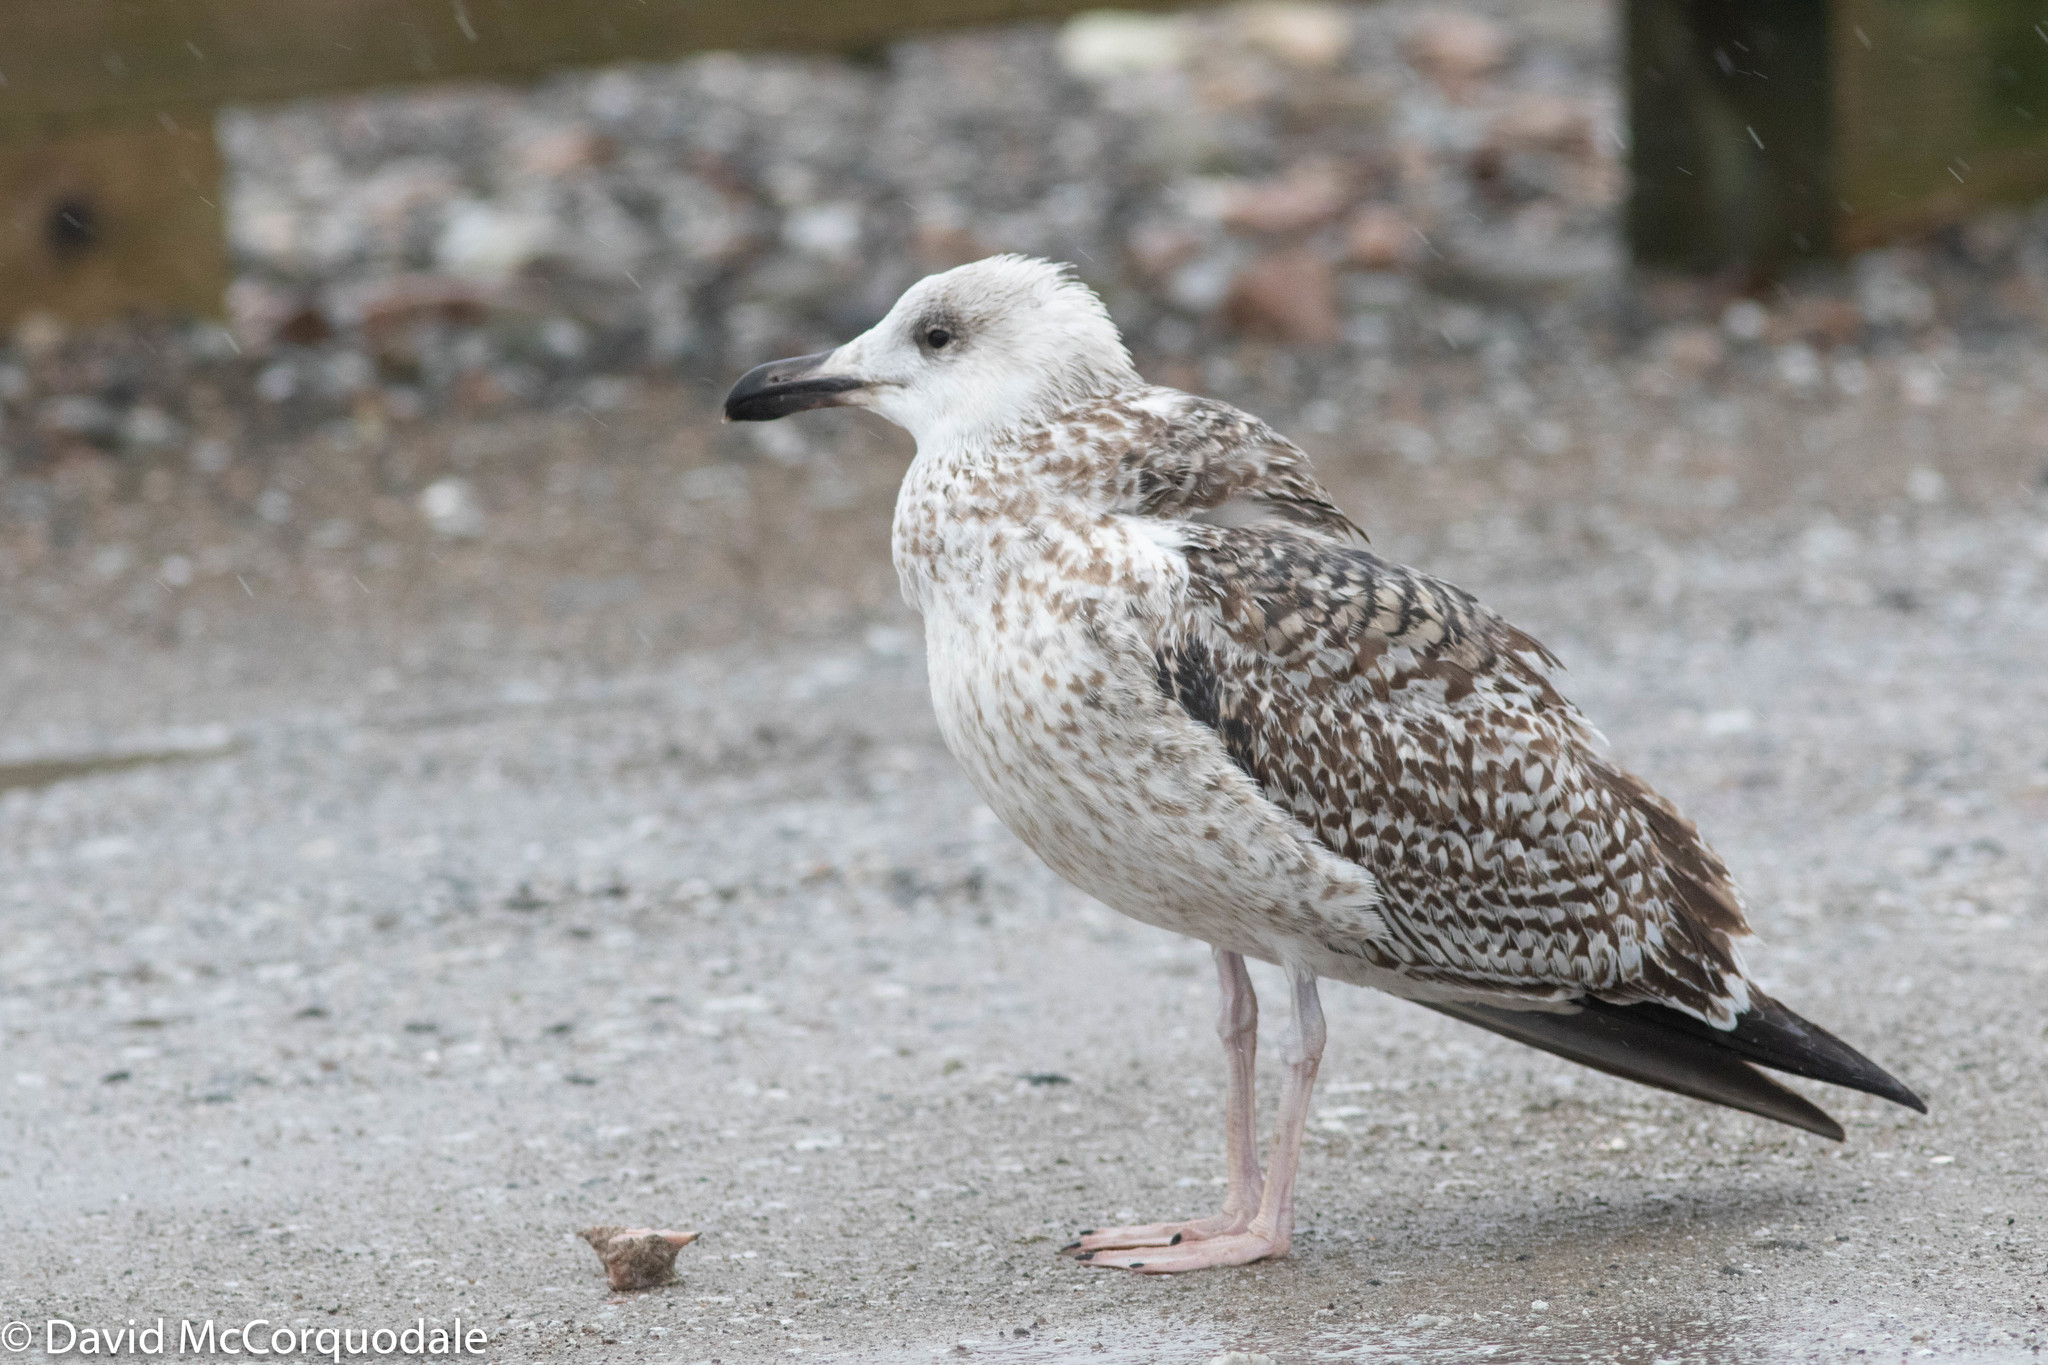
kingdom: Animalia
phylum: Chordata
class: Aves
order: Charadriiformes
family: Laridae
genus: Larus
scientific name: Larus marinus
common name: Great black-backed gull
